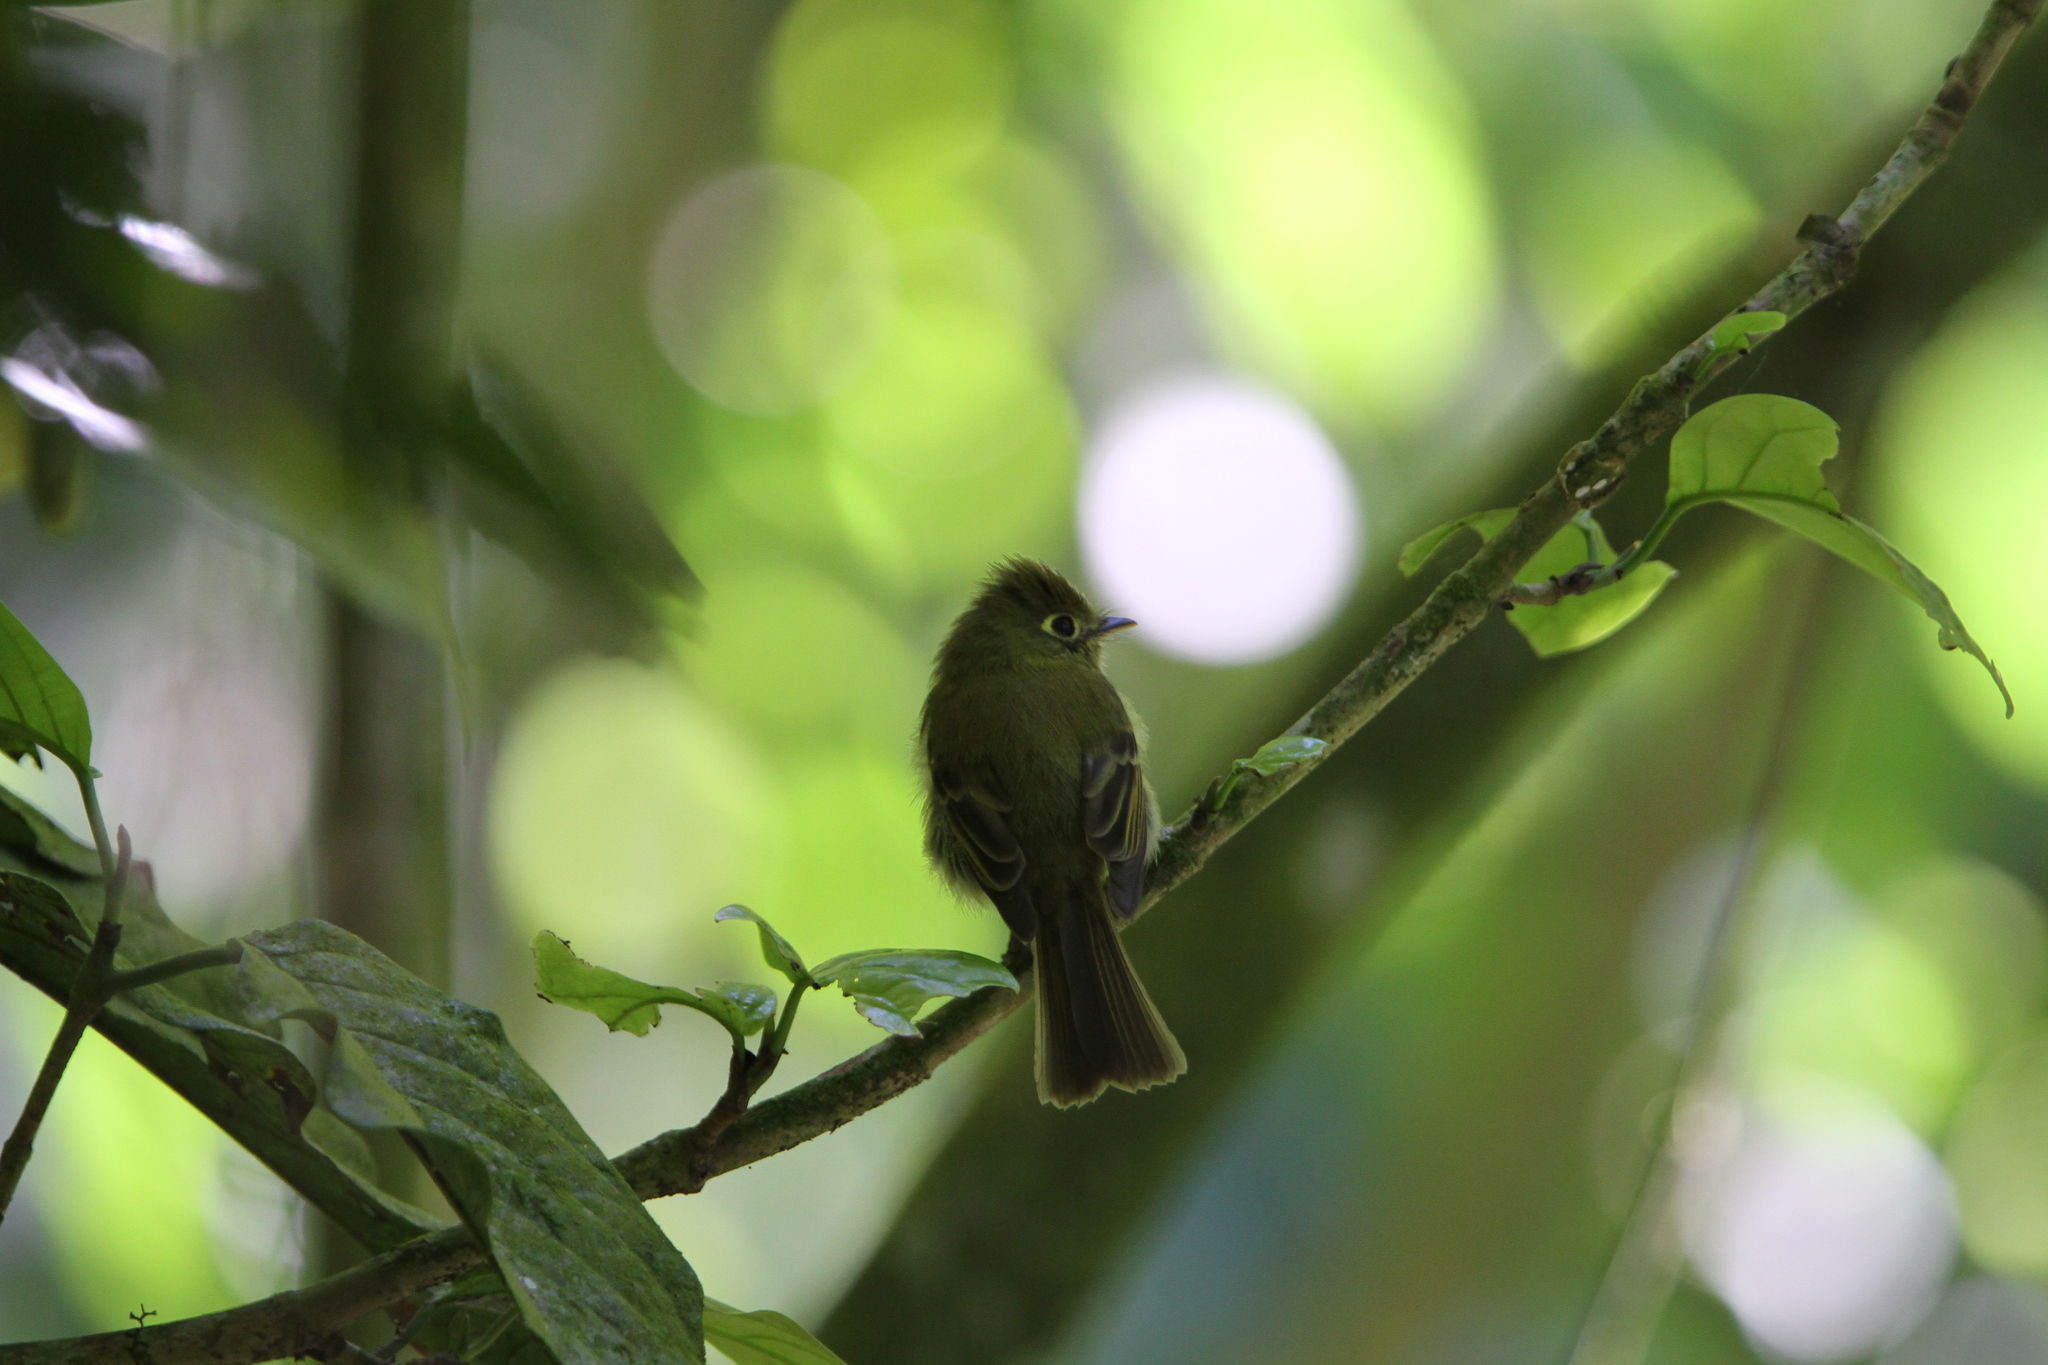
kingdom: Animalia
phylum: Chordata
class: Aves
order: Passeriformes
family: Tyrannidae
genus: Empidonax
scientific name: Empidonax flavescens
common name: Yellowish flycatcher
